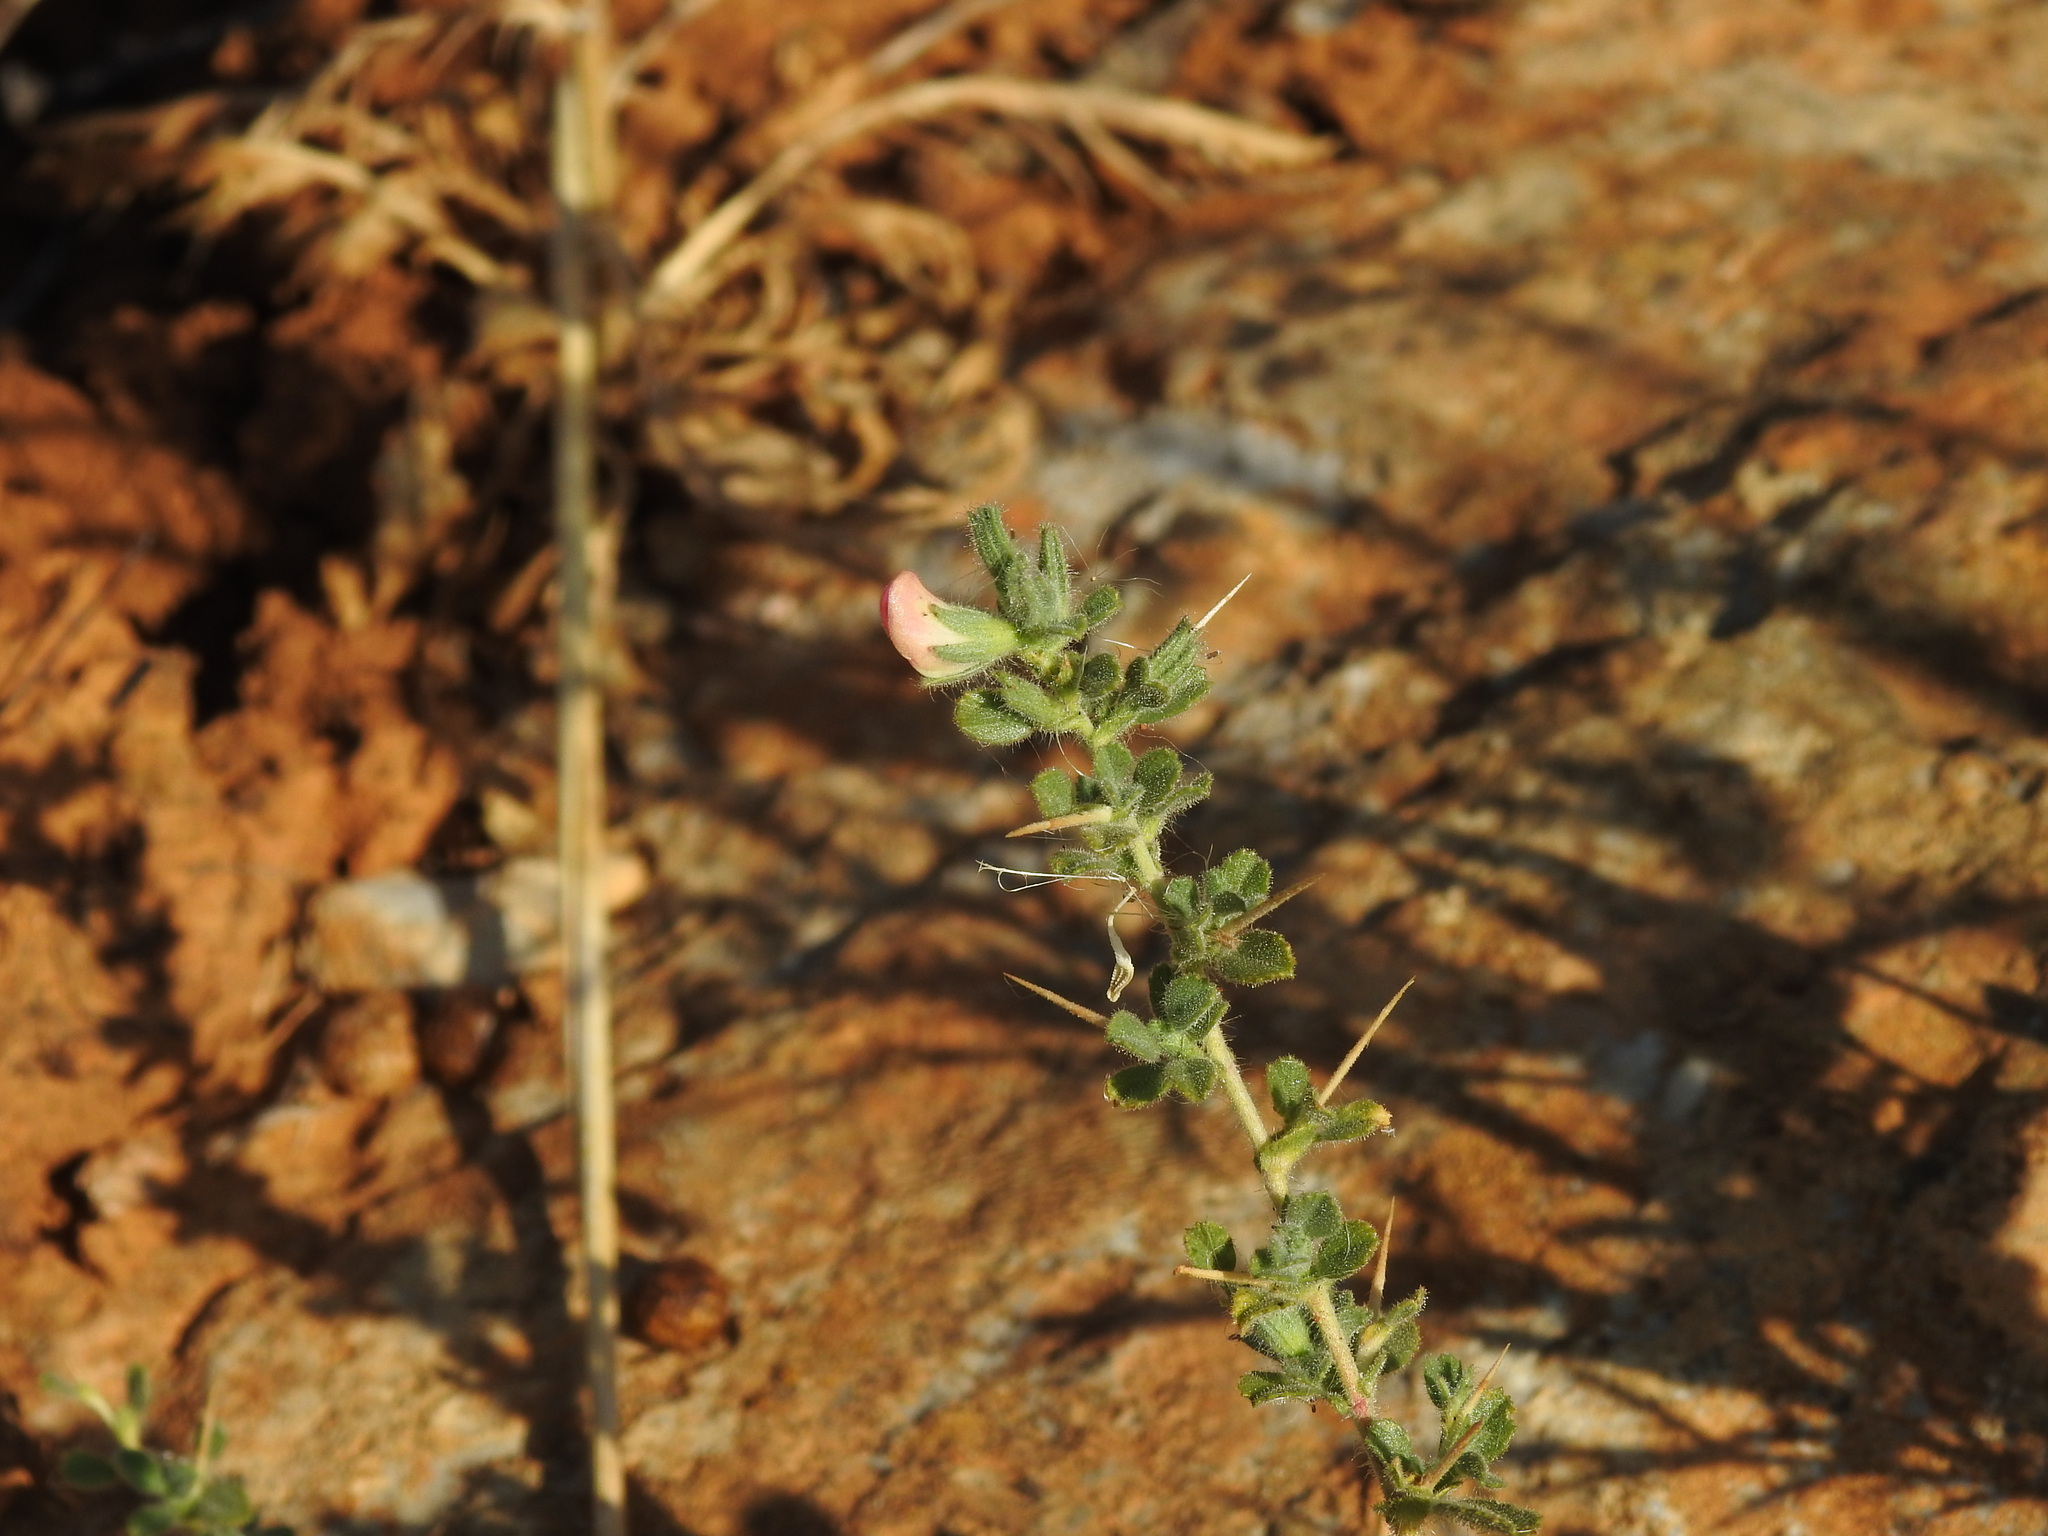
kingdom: Plantae
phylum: Tracheophyta
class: Magnoliopsida
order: Fabales
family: Fabaceae
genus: Ononis
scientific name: Ononis spinosa
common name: Spiny restharrow
